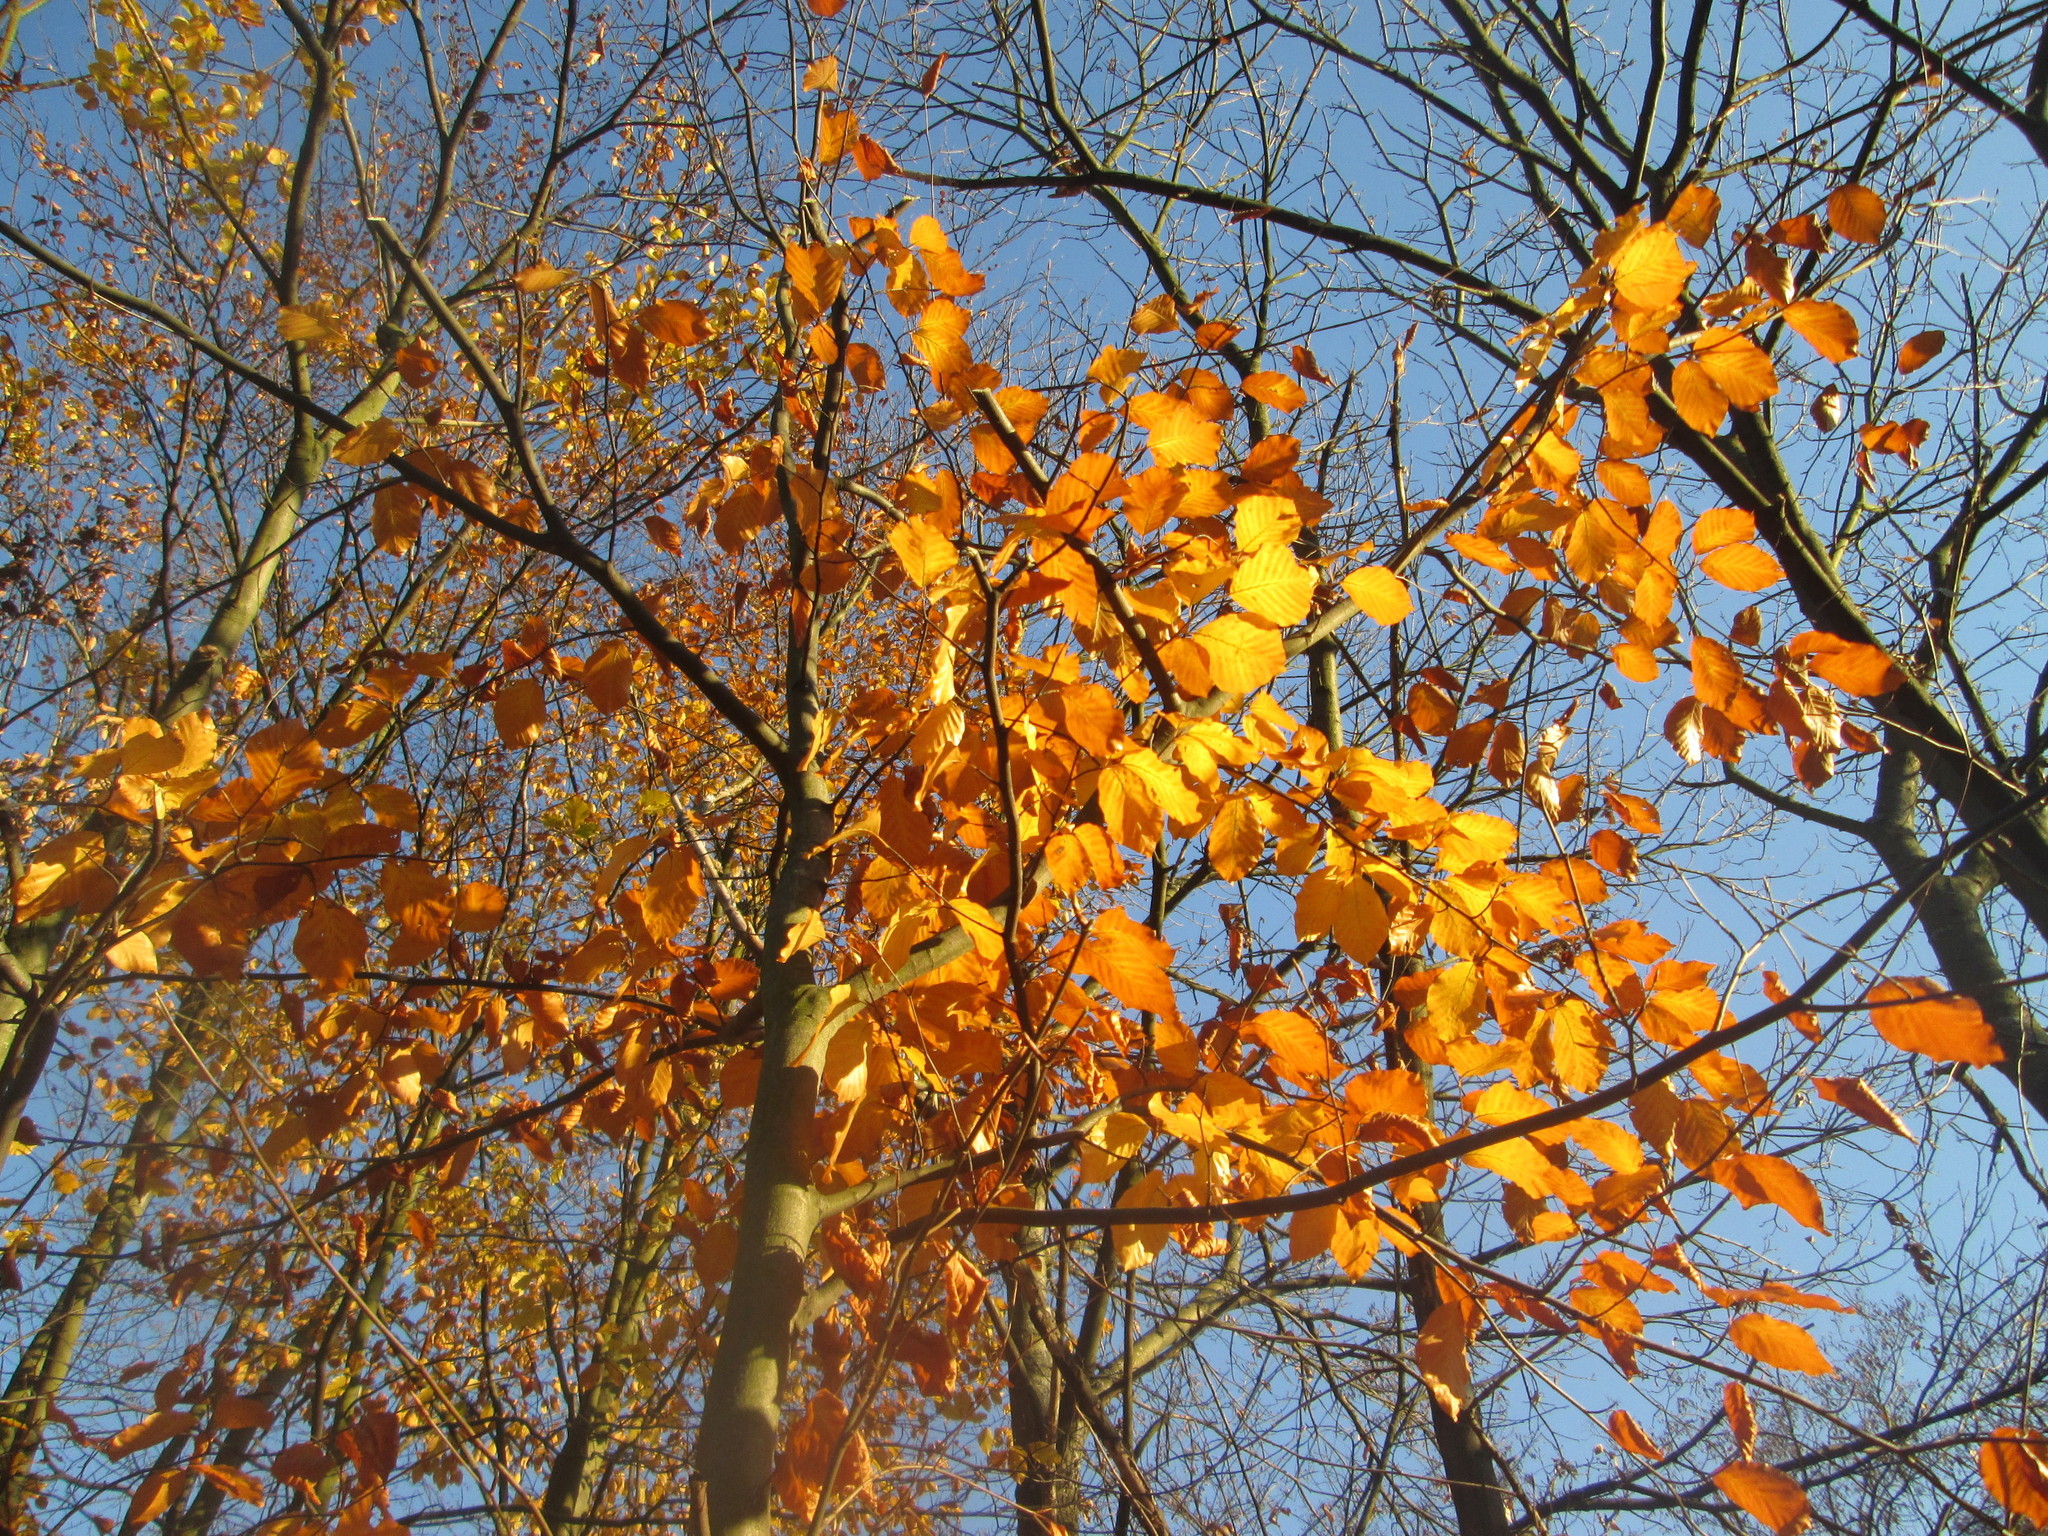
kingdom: Plantae
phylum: Tracheophyta
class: Magnoliopsida
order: Fagales
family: Fagaceae
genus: Fagus
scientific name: Fagus sylvatica
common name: Beech
